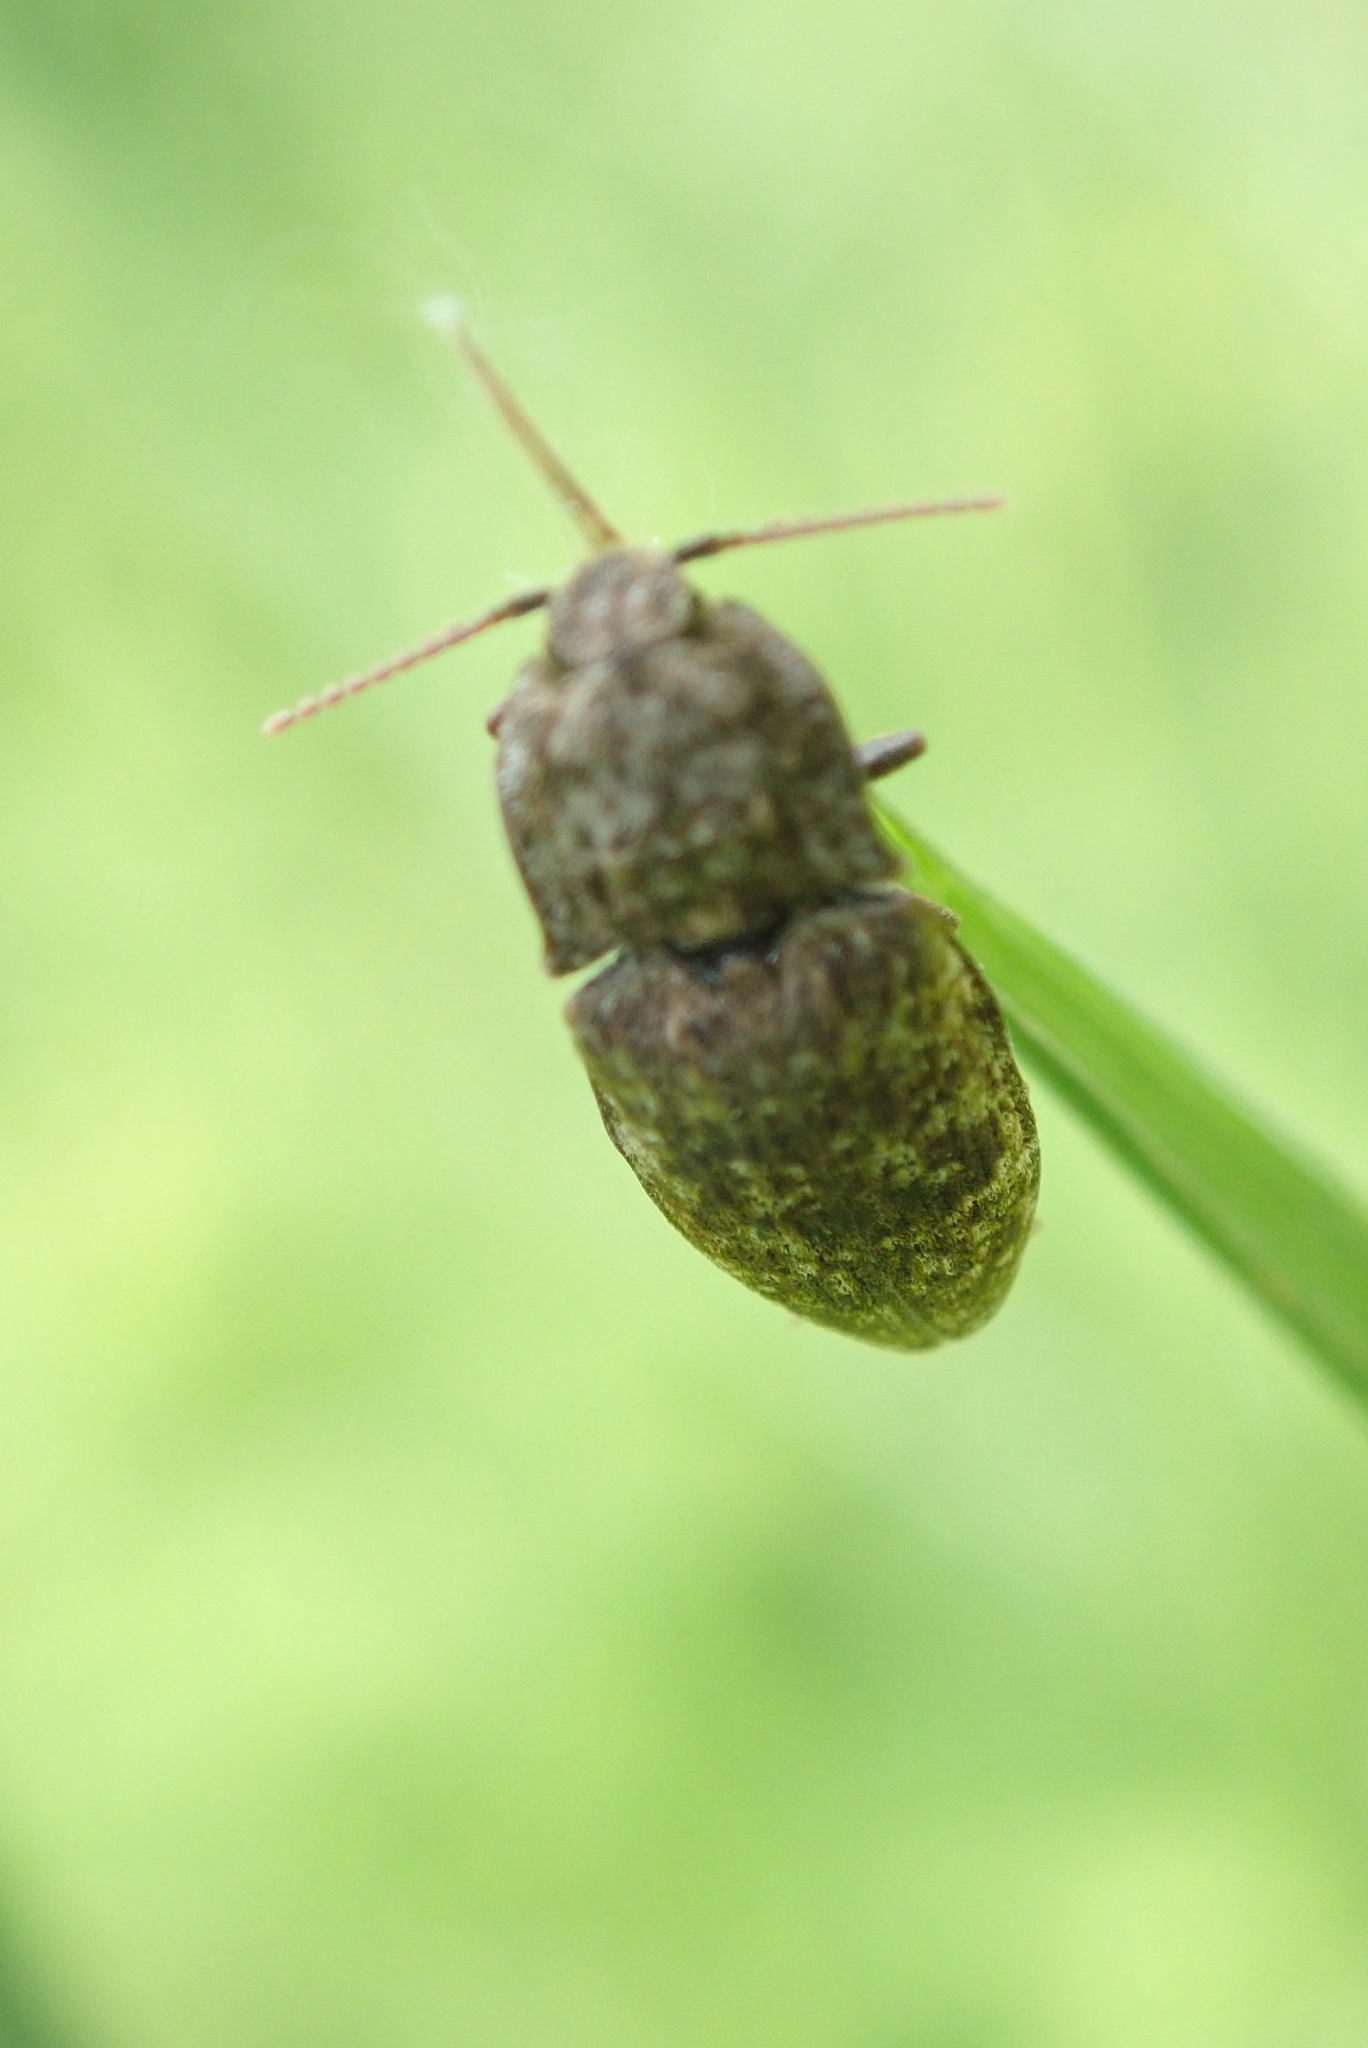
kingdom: Animalia
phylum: Arthropoda
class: Insecta
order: Coleoptera
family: Elateridae
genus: Agrypnus
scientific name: Agrypnus murinus
